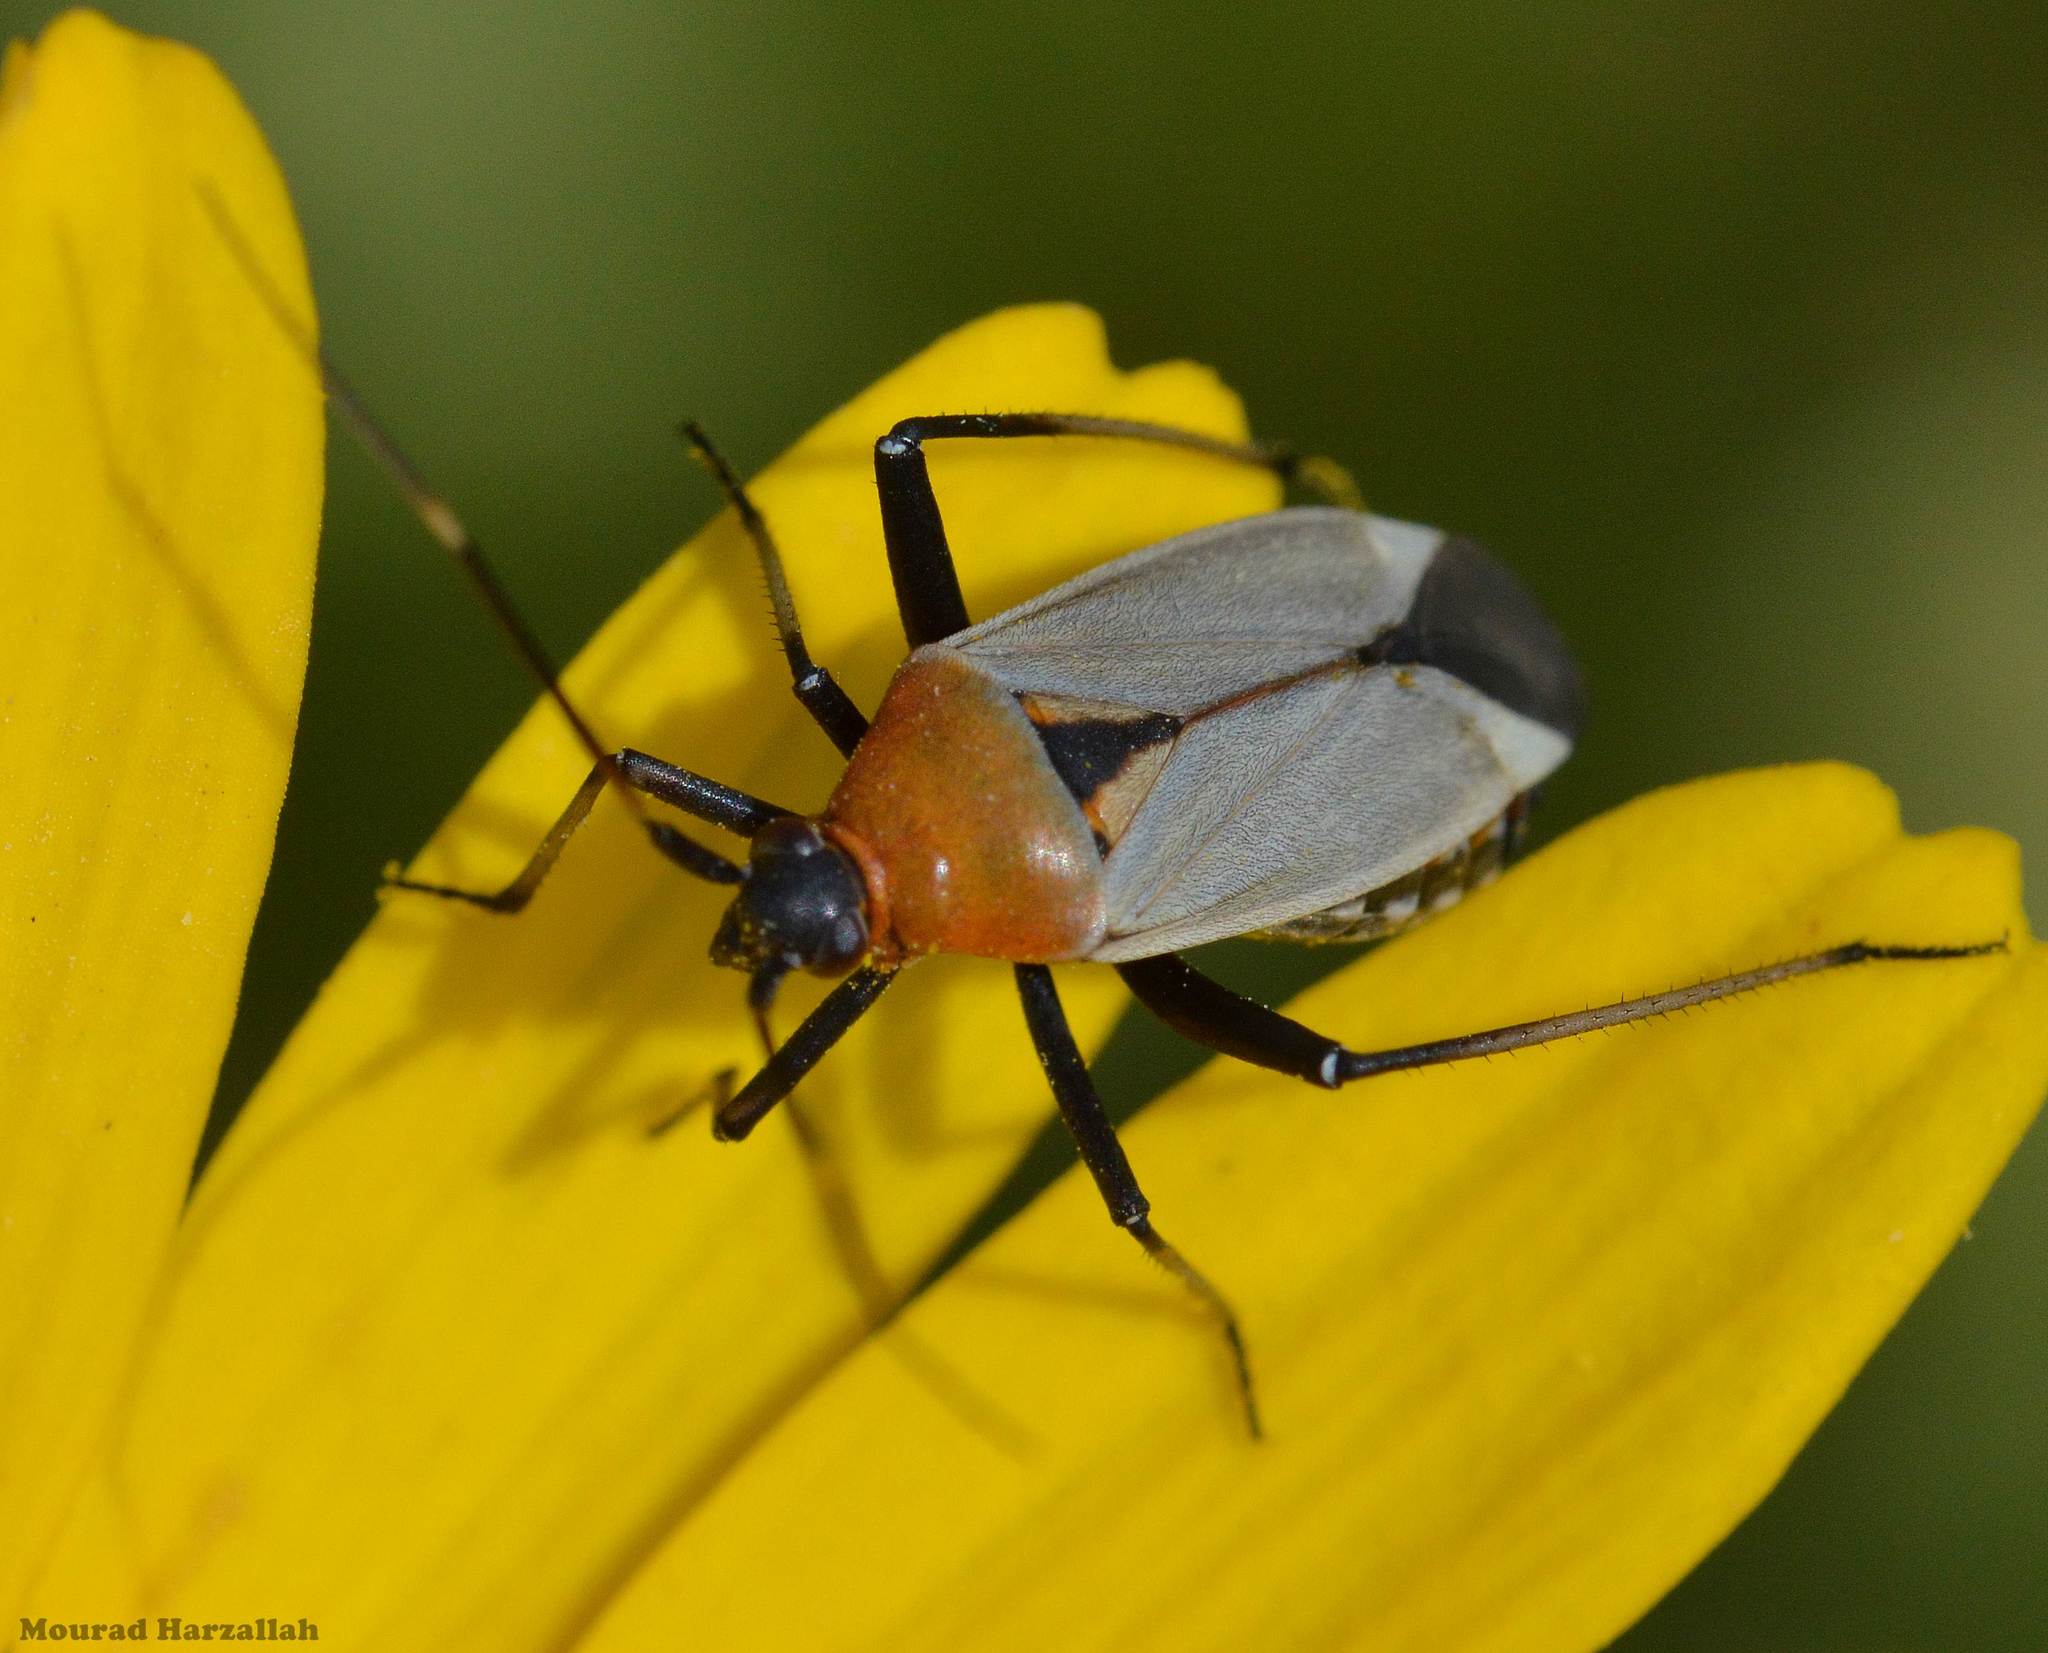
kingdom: Animalia
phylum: Arthropoda
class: Insecta
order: Hemiptera
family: Miridae
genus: Calocoris
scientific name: Calocoris nemoralis
